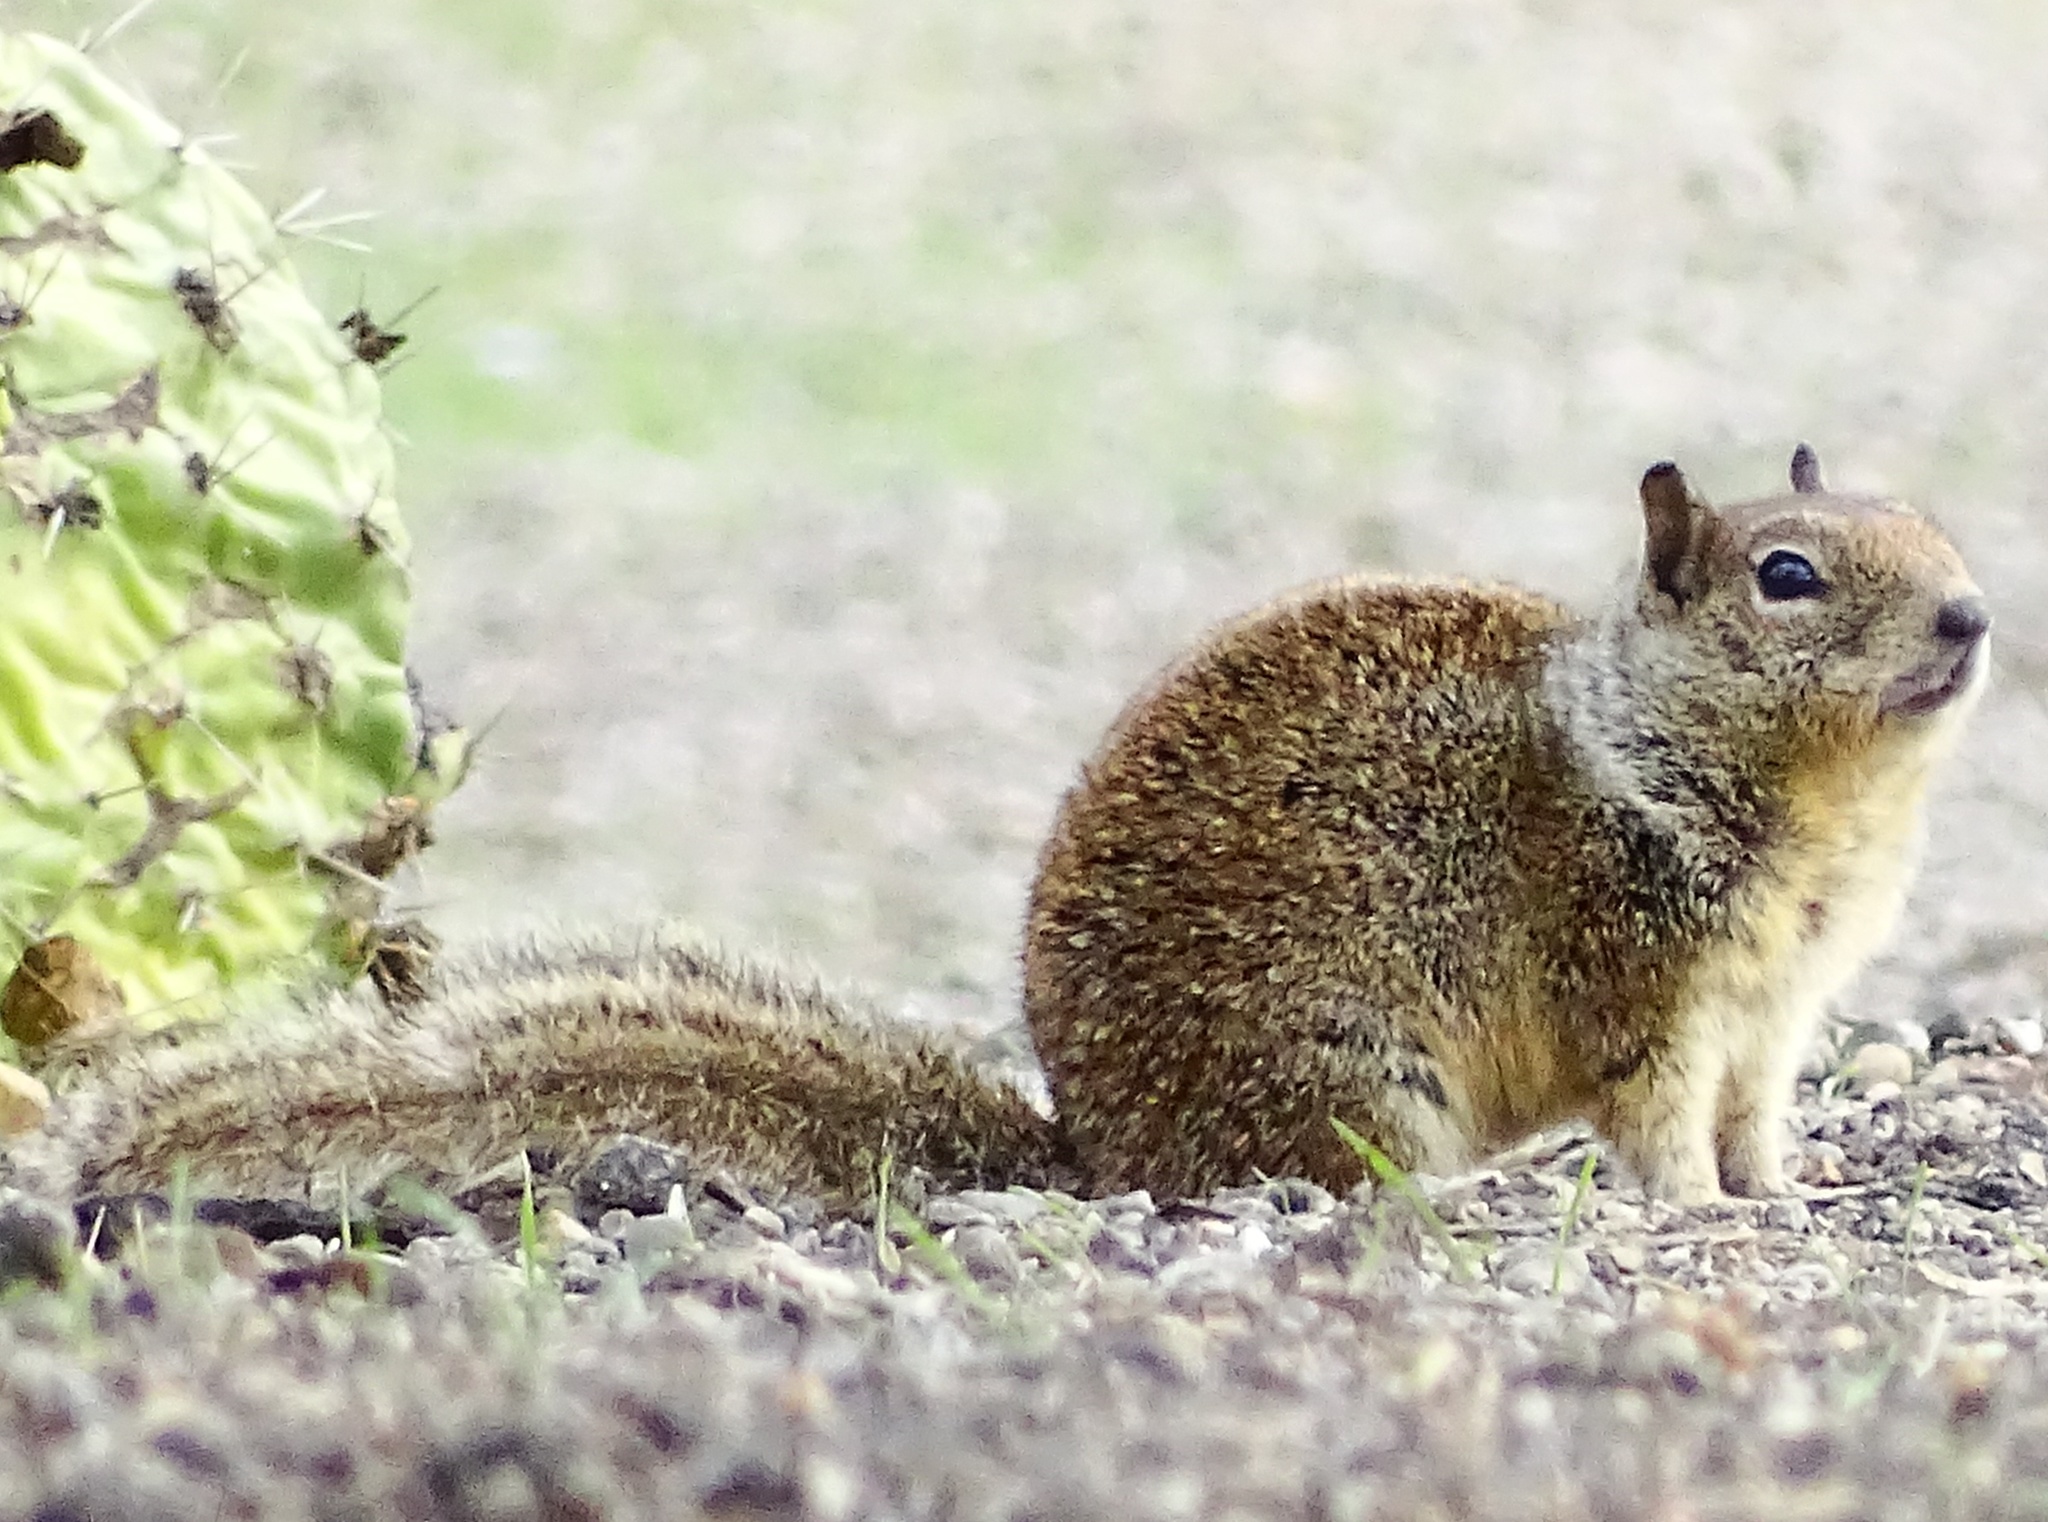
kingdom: Animalia
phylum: Chordata
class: Mammalia
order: Rodentia
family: Sciuridae
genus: Otospermophilus
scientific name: Otospermophilus beecheyi
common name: California ground squirrel
